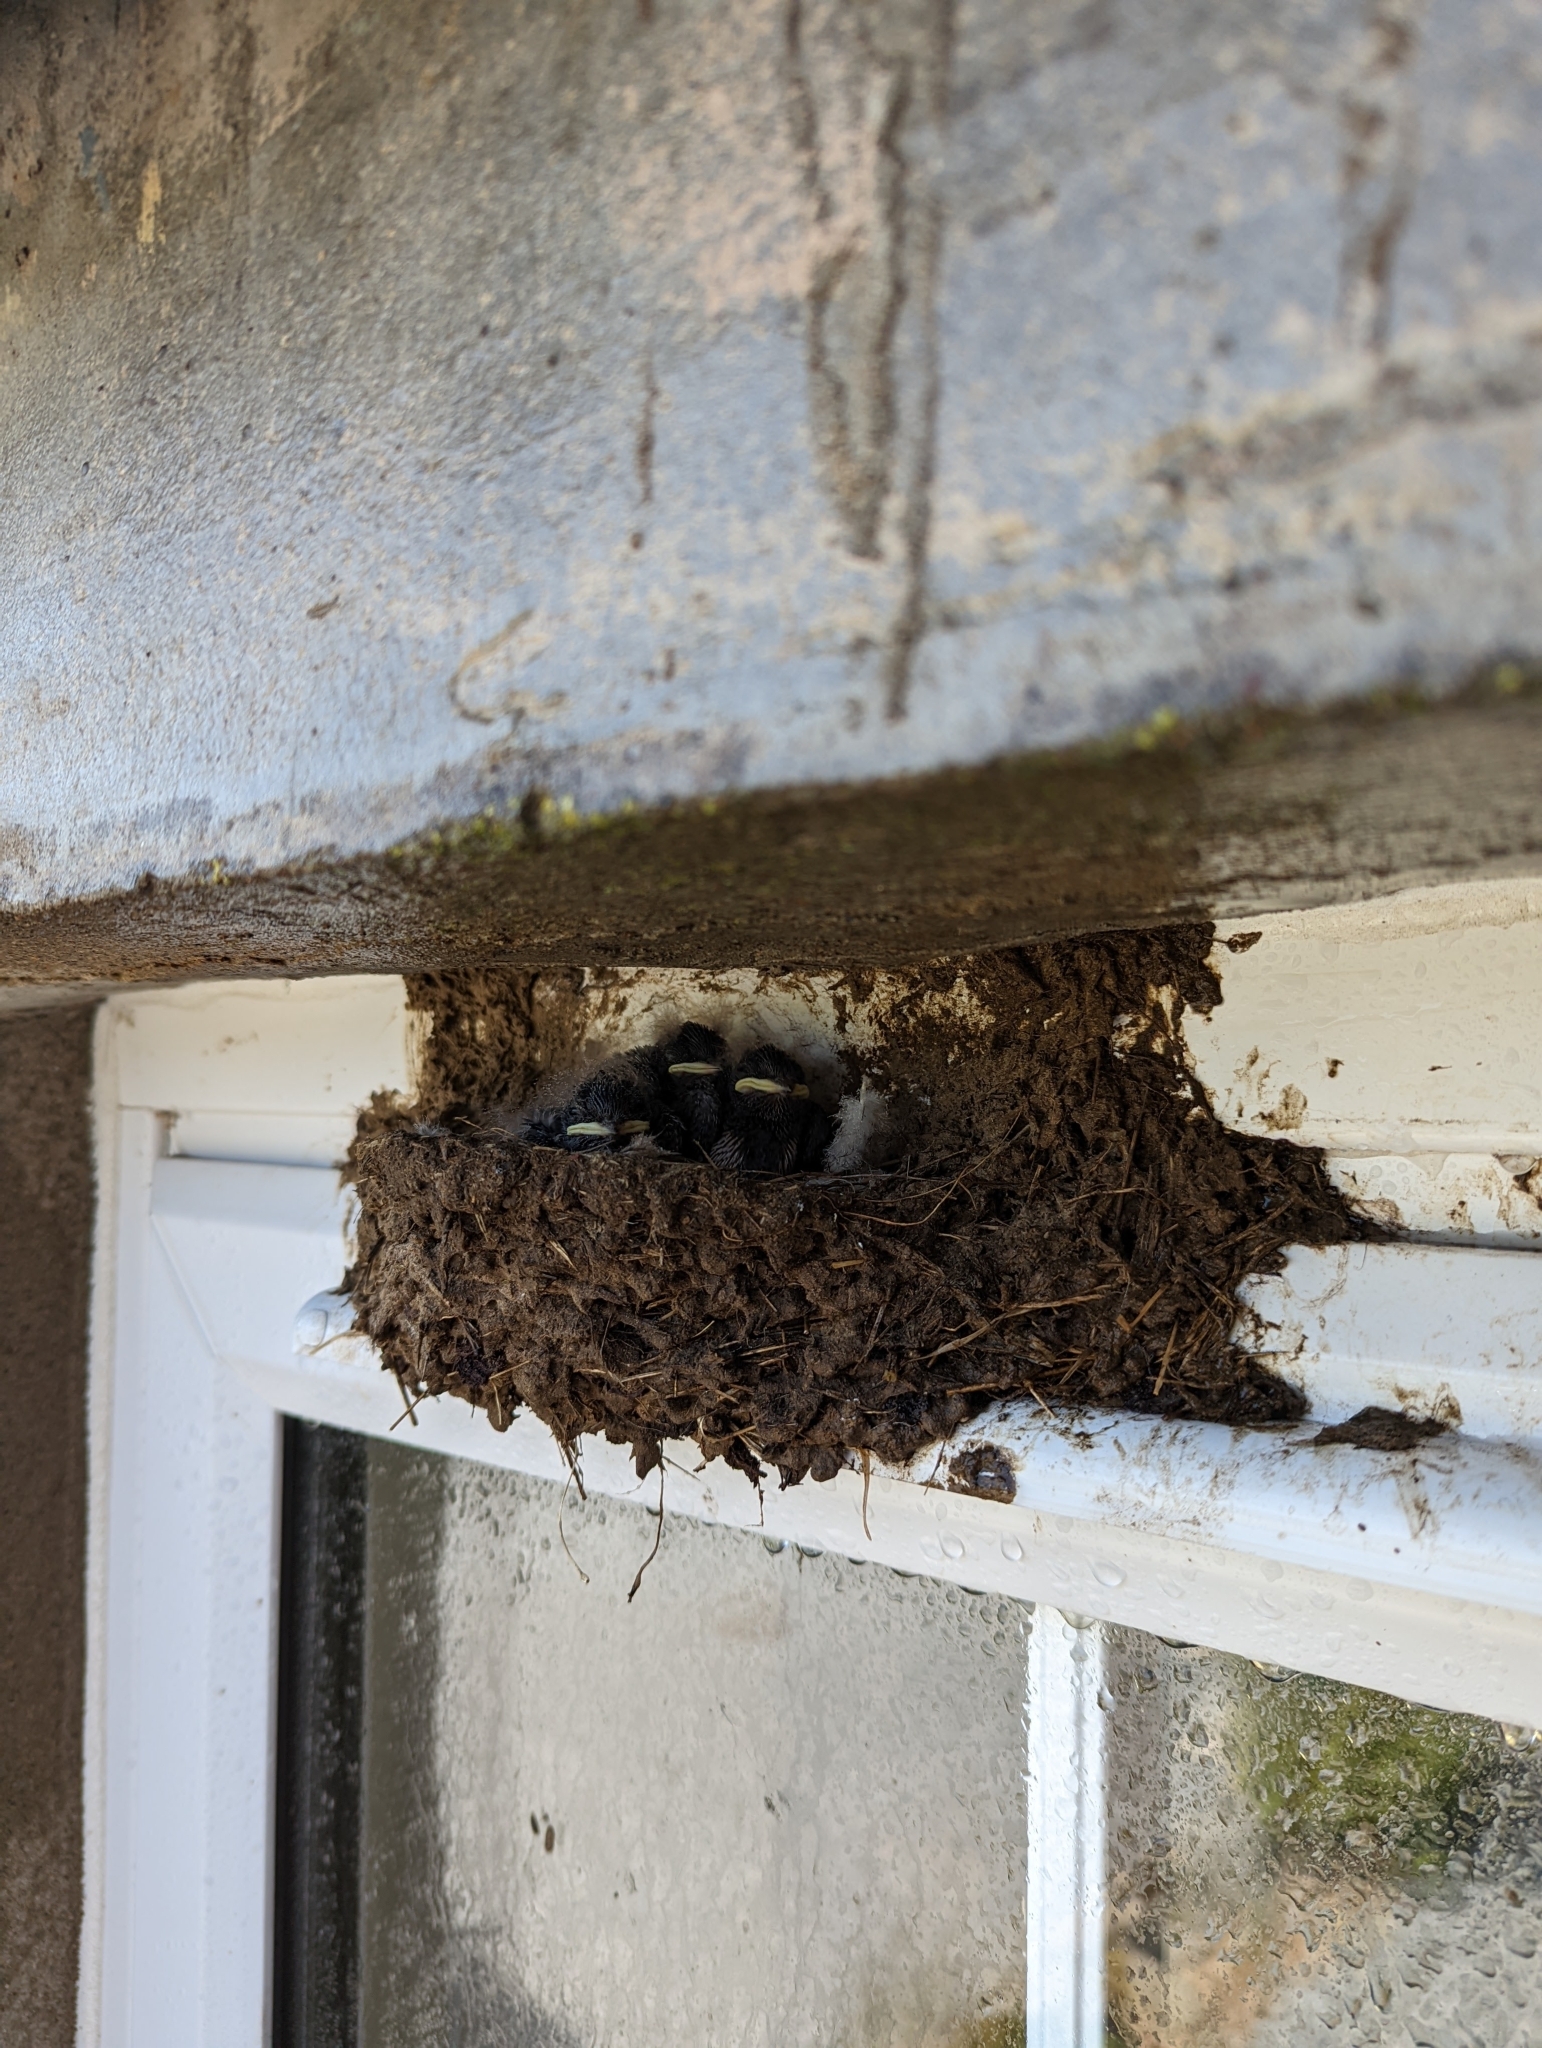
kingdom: Animalia
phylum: Chordata
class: Aves
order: Passeriformes
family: Hirundinidae
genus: Hirundo
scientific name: Hirundo rustica
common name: Barn swallow
